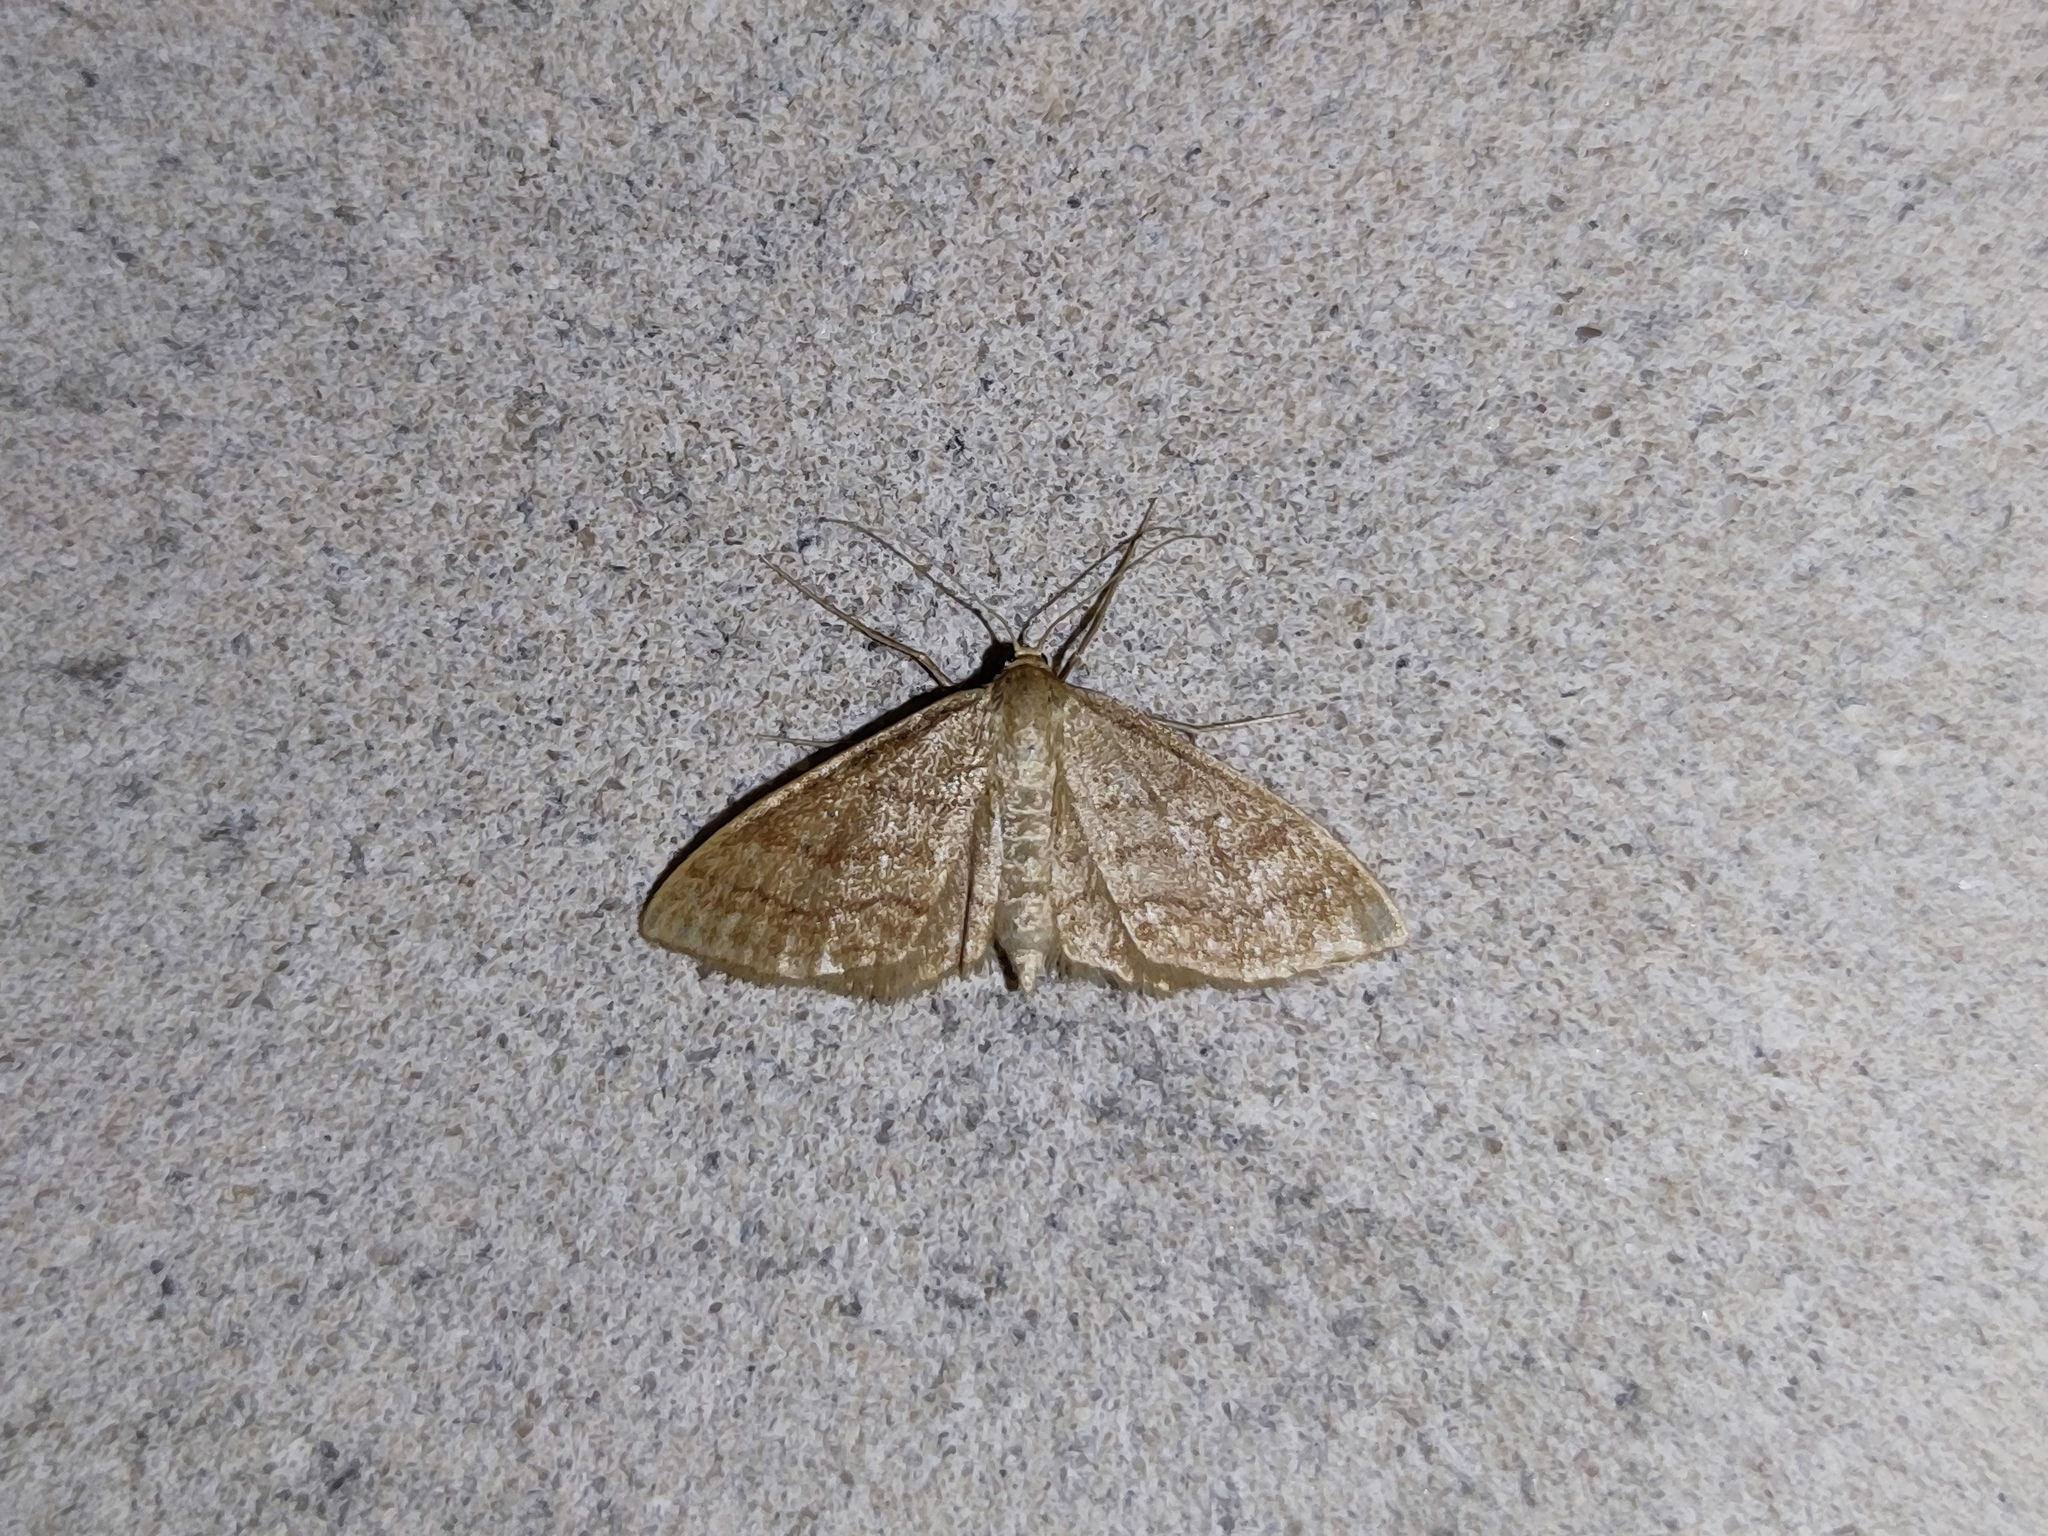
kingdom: Animalia
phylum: Arthropoda
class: Insecta
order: Lepidoptera
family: Geometridae
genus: Idaea
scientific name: Idaea ochrata
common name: Bright wave
